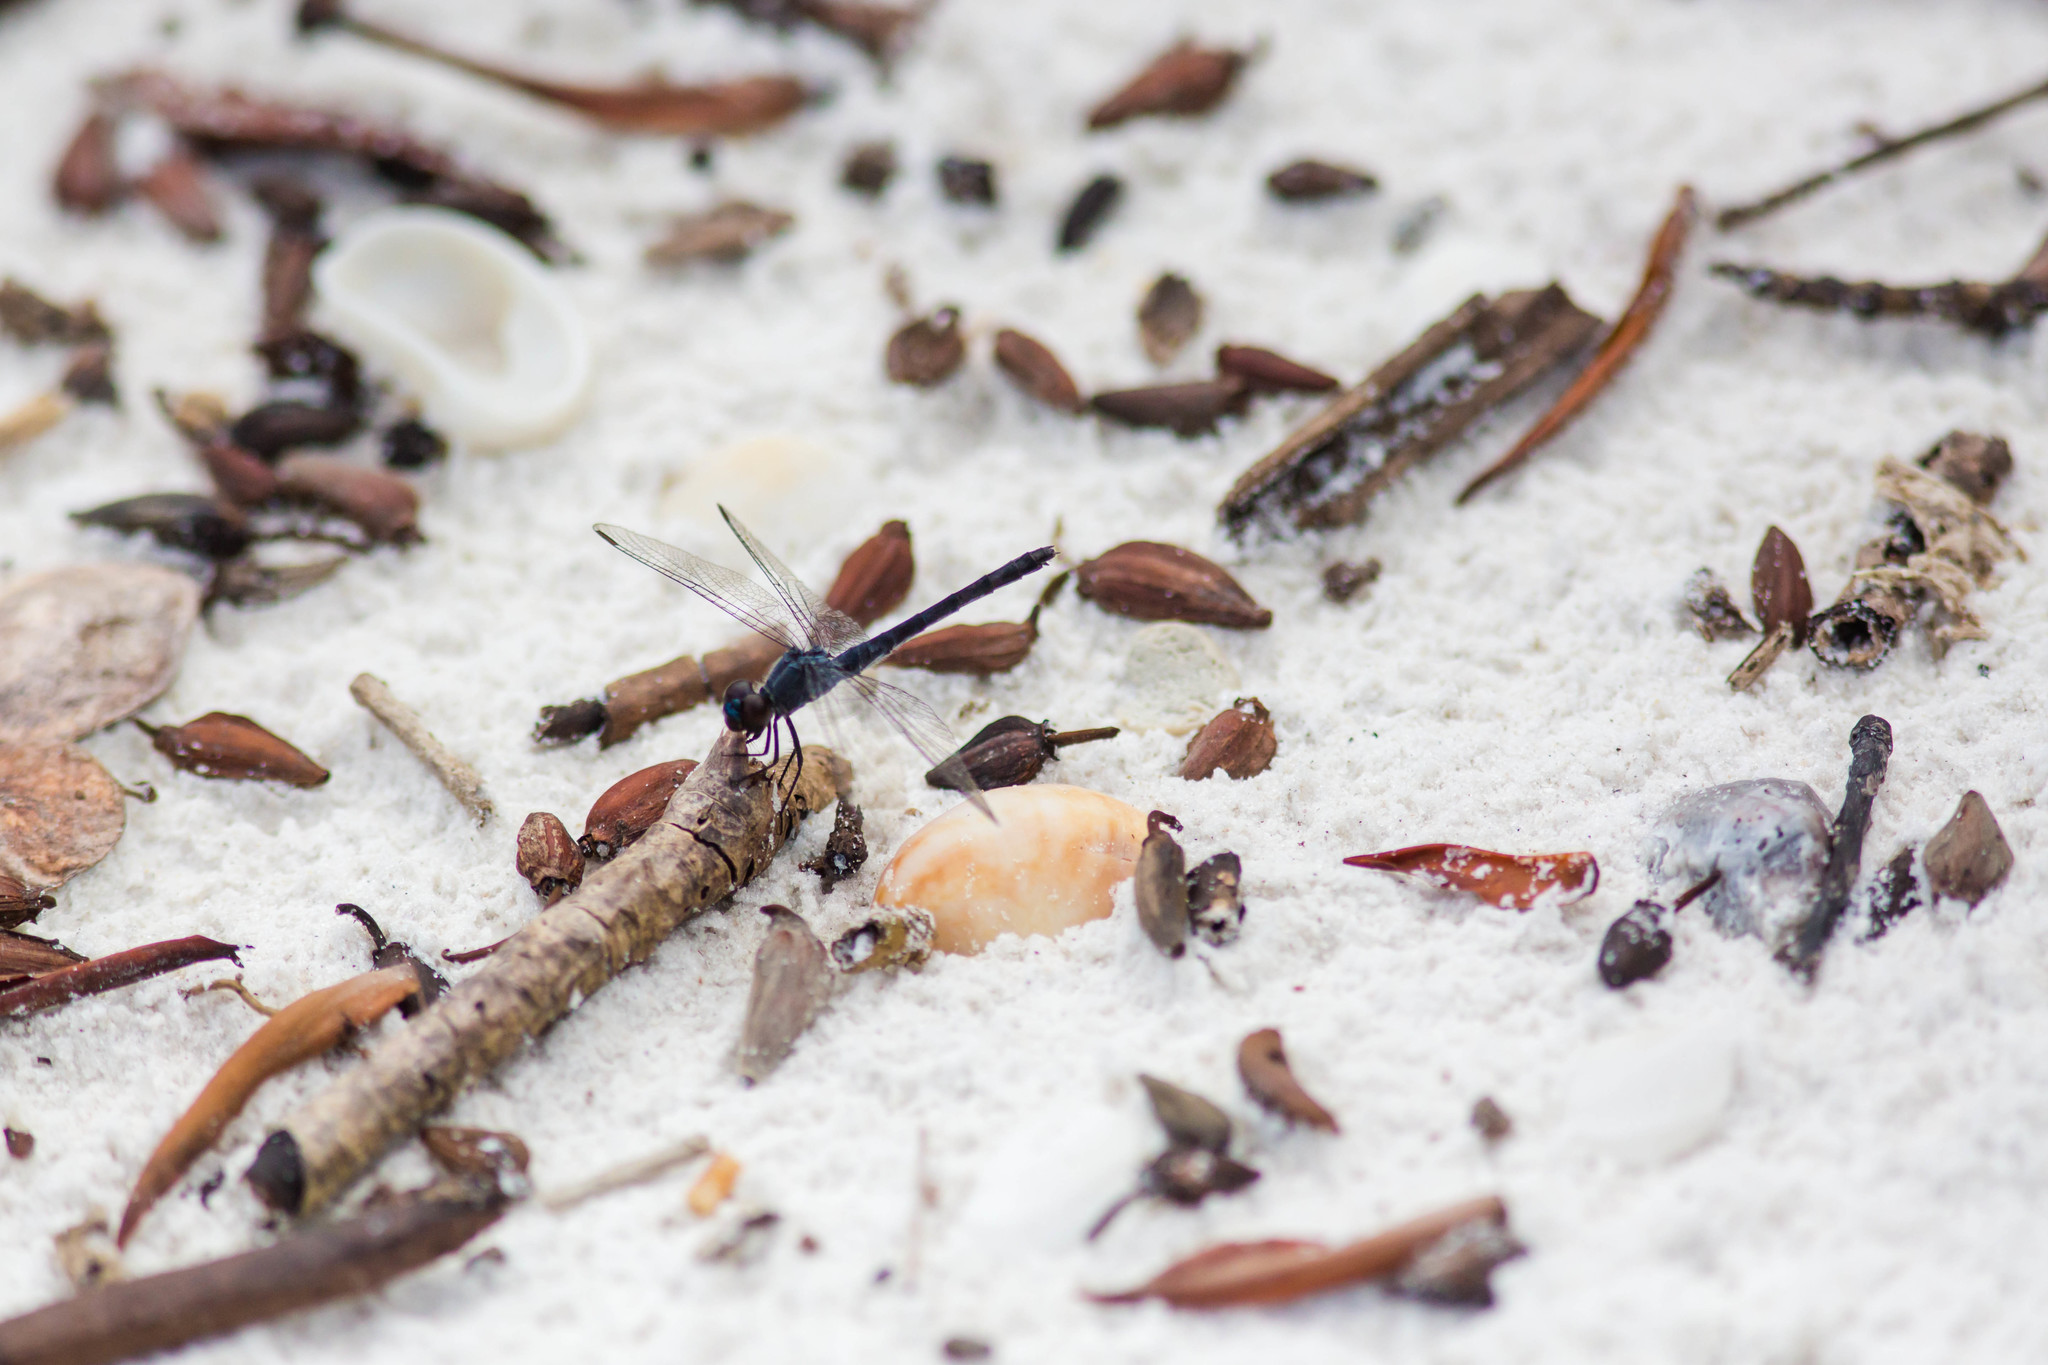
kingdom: Animalia
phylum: Arthropoda
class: Insecta
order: Odonata
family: Libellulidae
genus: Erythrodiplax
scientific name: Erythrodiplax berenice
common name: Seaside dragonlet
